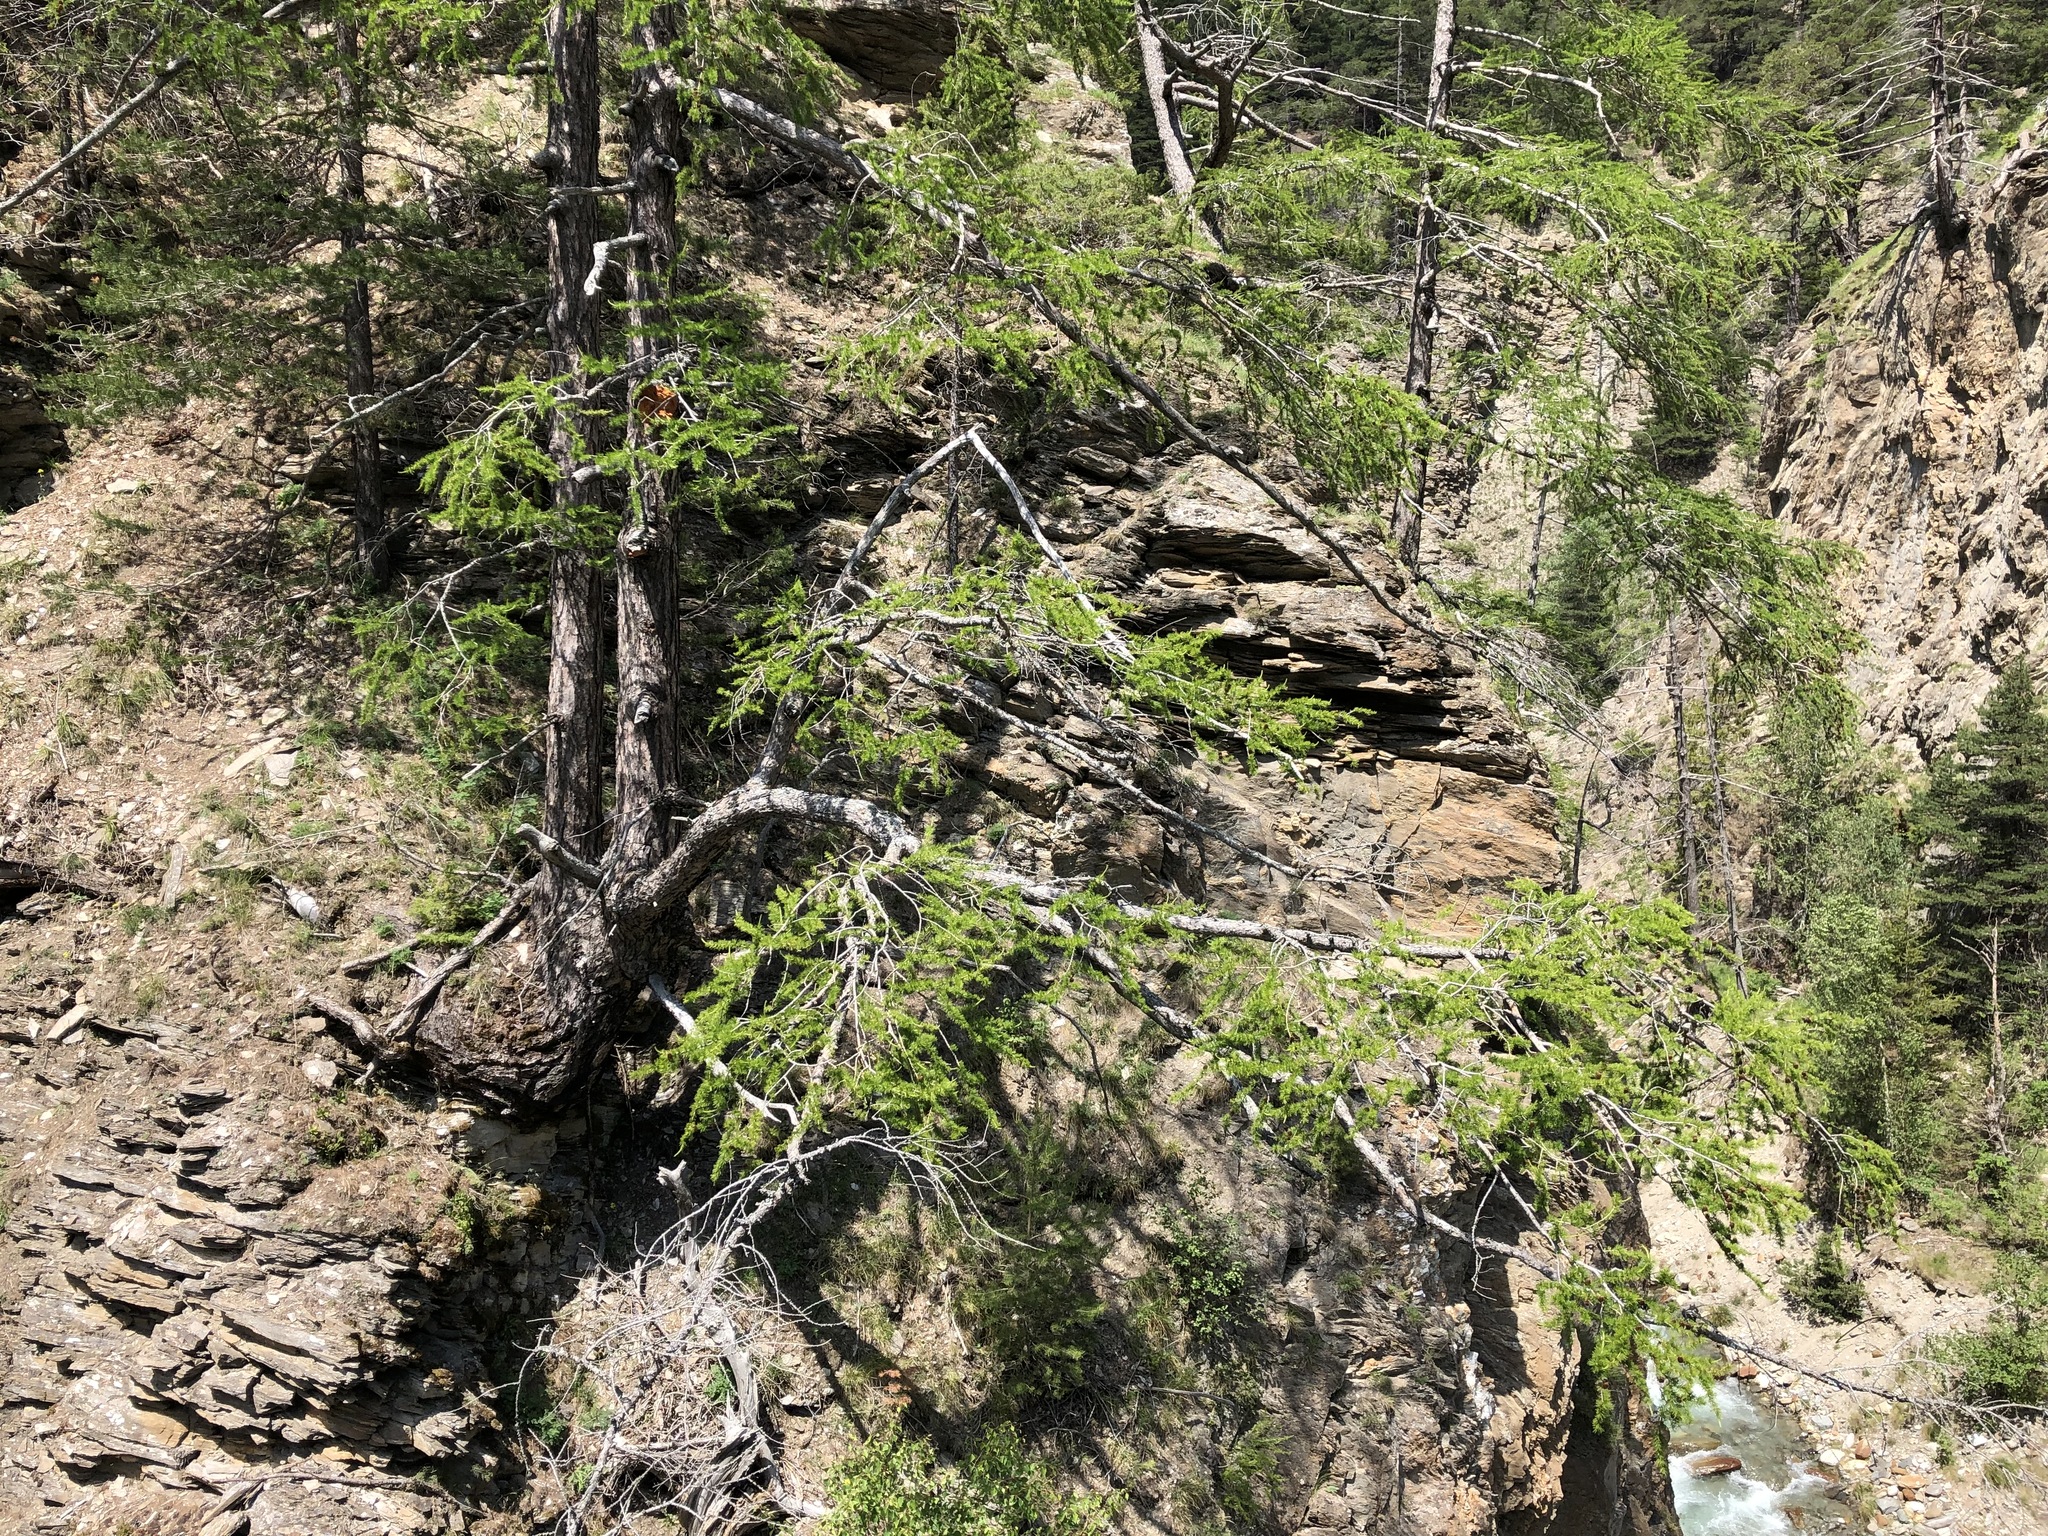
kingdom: Plantae
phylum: Tracheophyta
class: Pinopsida
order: Pinales
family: Pinaceae
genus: Larix
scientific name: Larix decidua
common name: European larch
